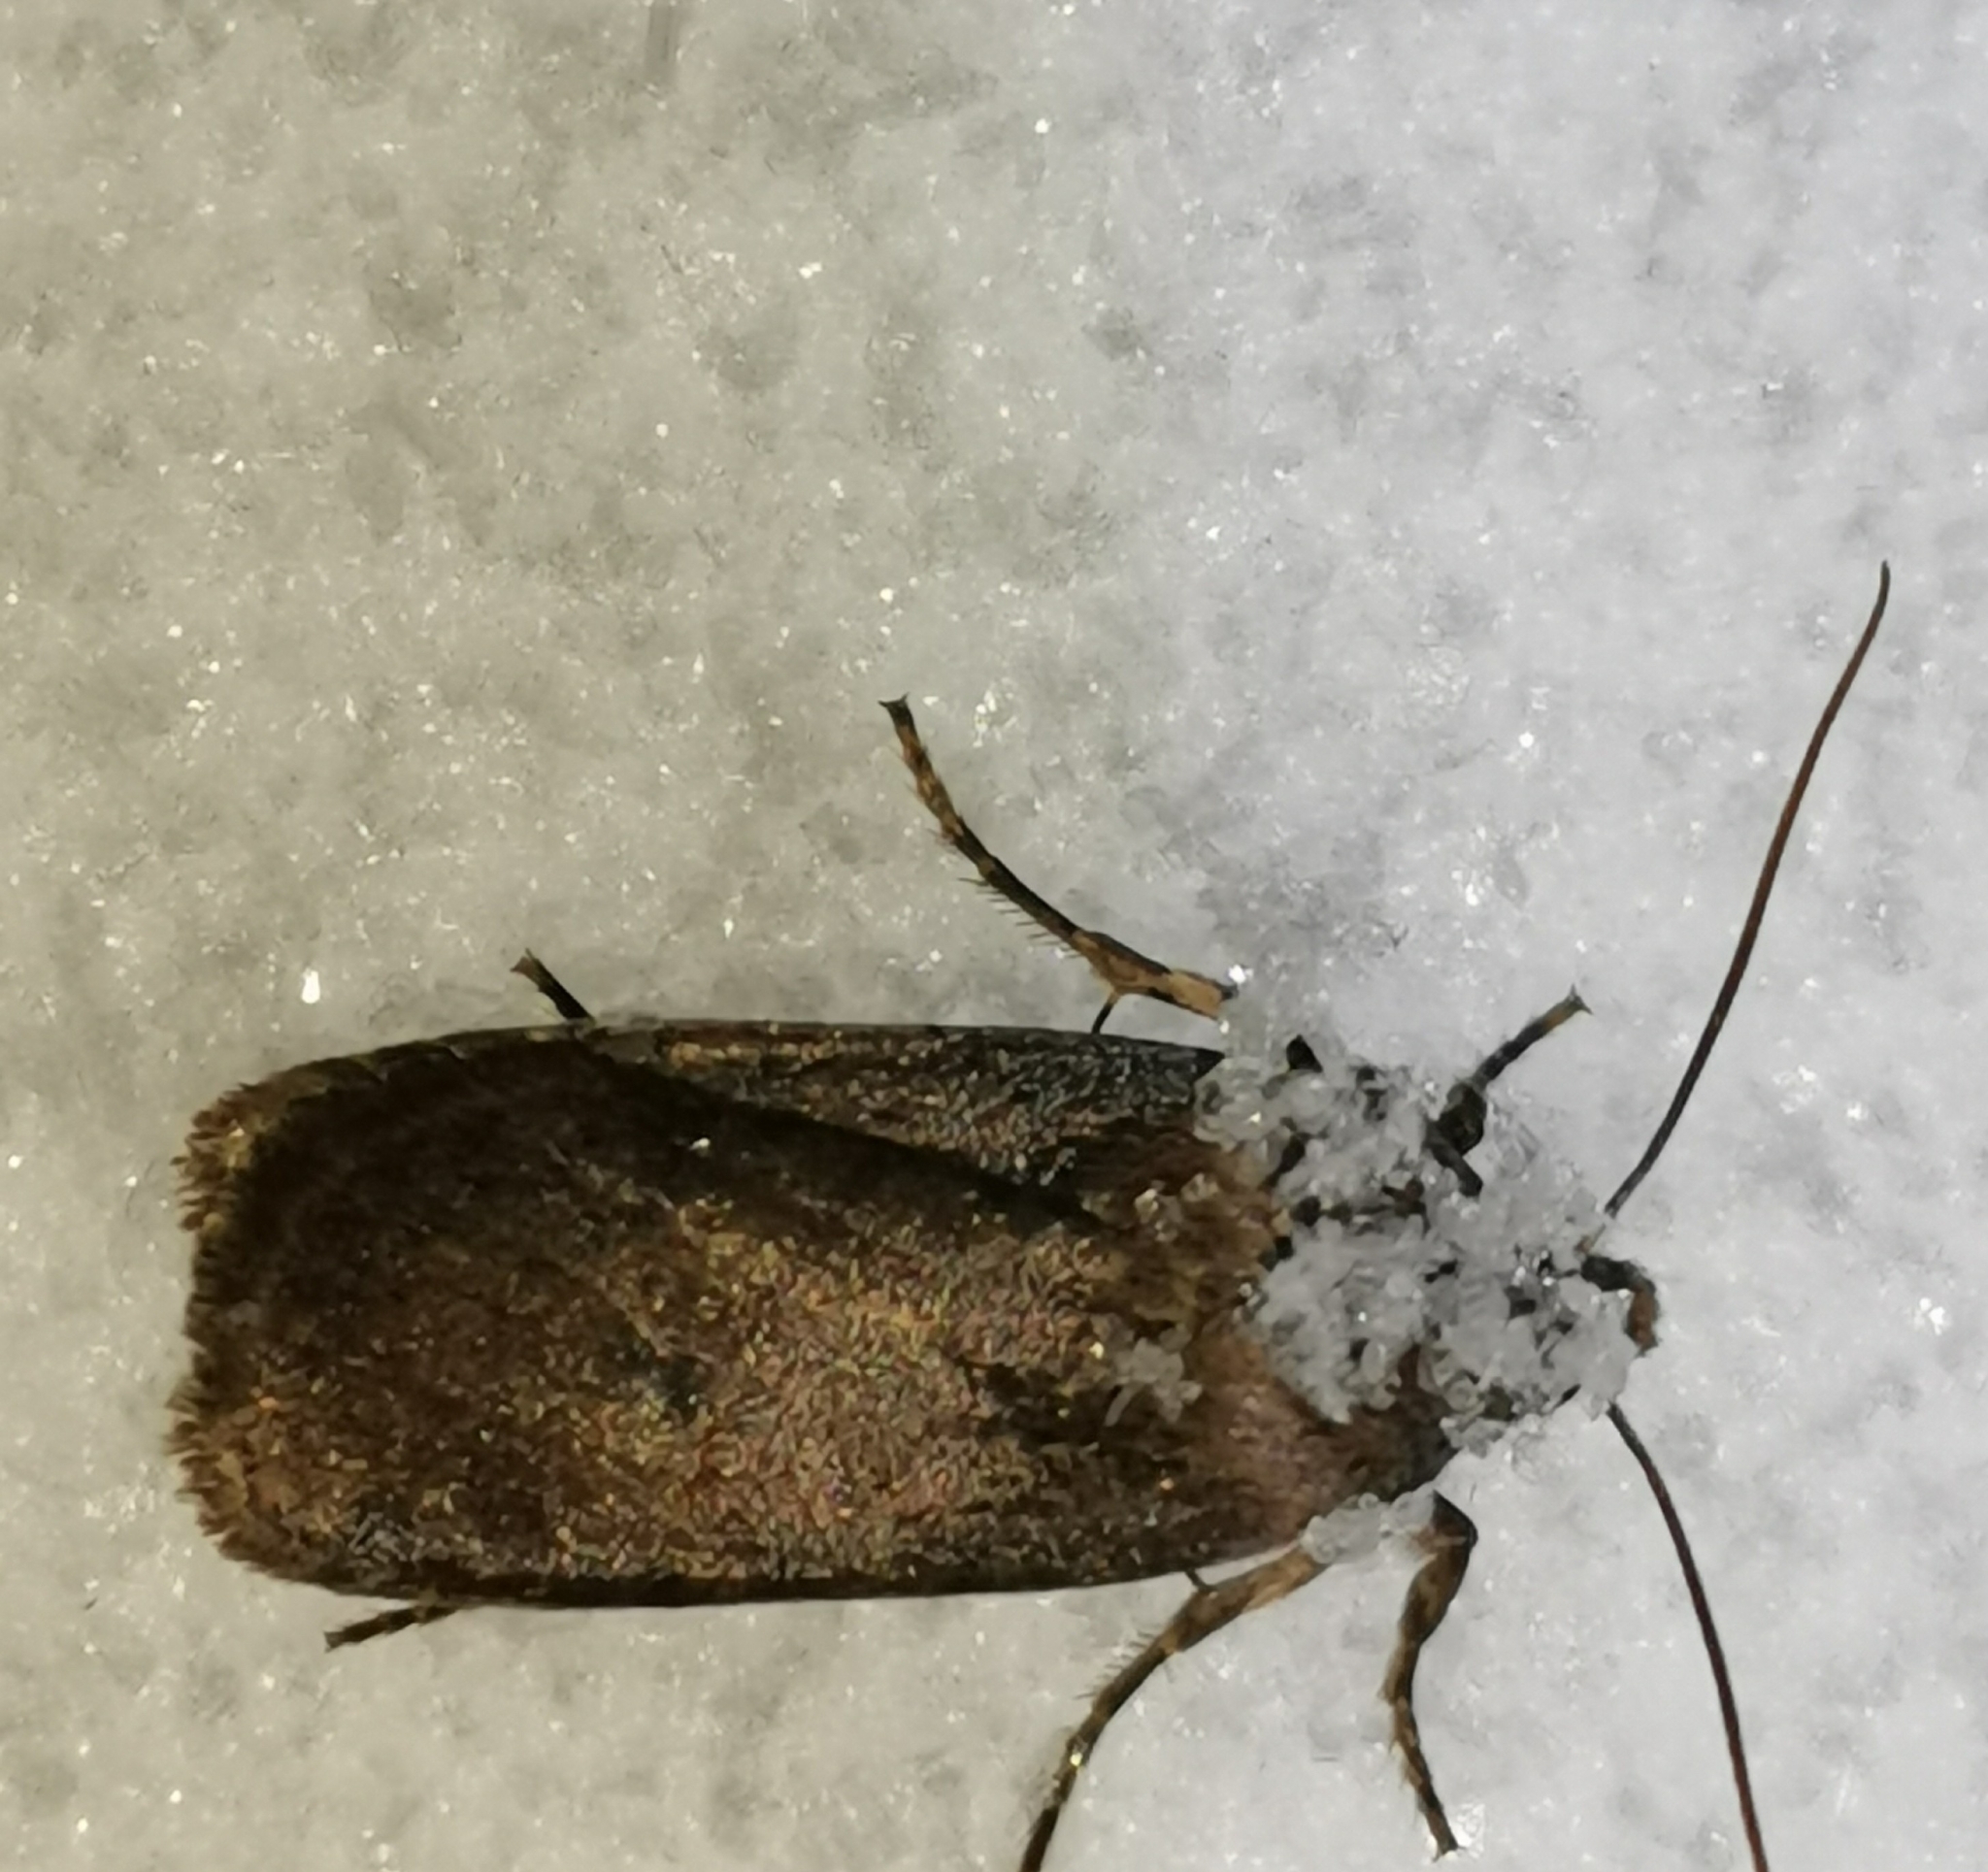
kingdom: Animalia
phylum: Arthropoda
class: Insecta
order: Lepidoptera
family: Noctuidae
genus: Conistra
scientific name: Conistra vaccinii
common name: Chestnut
